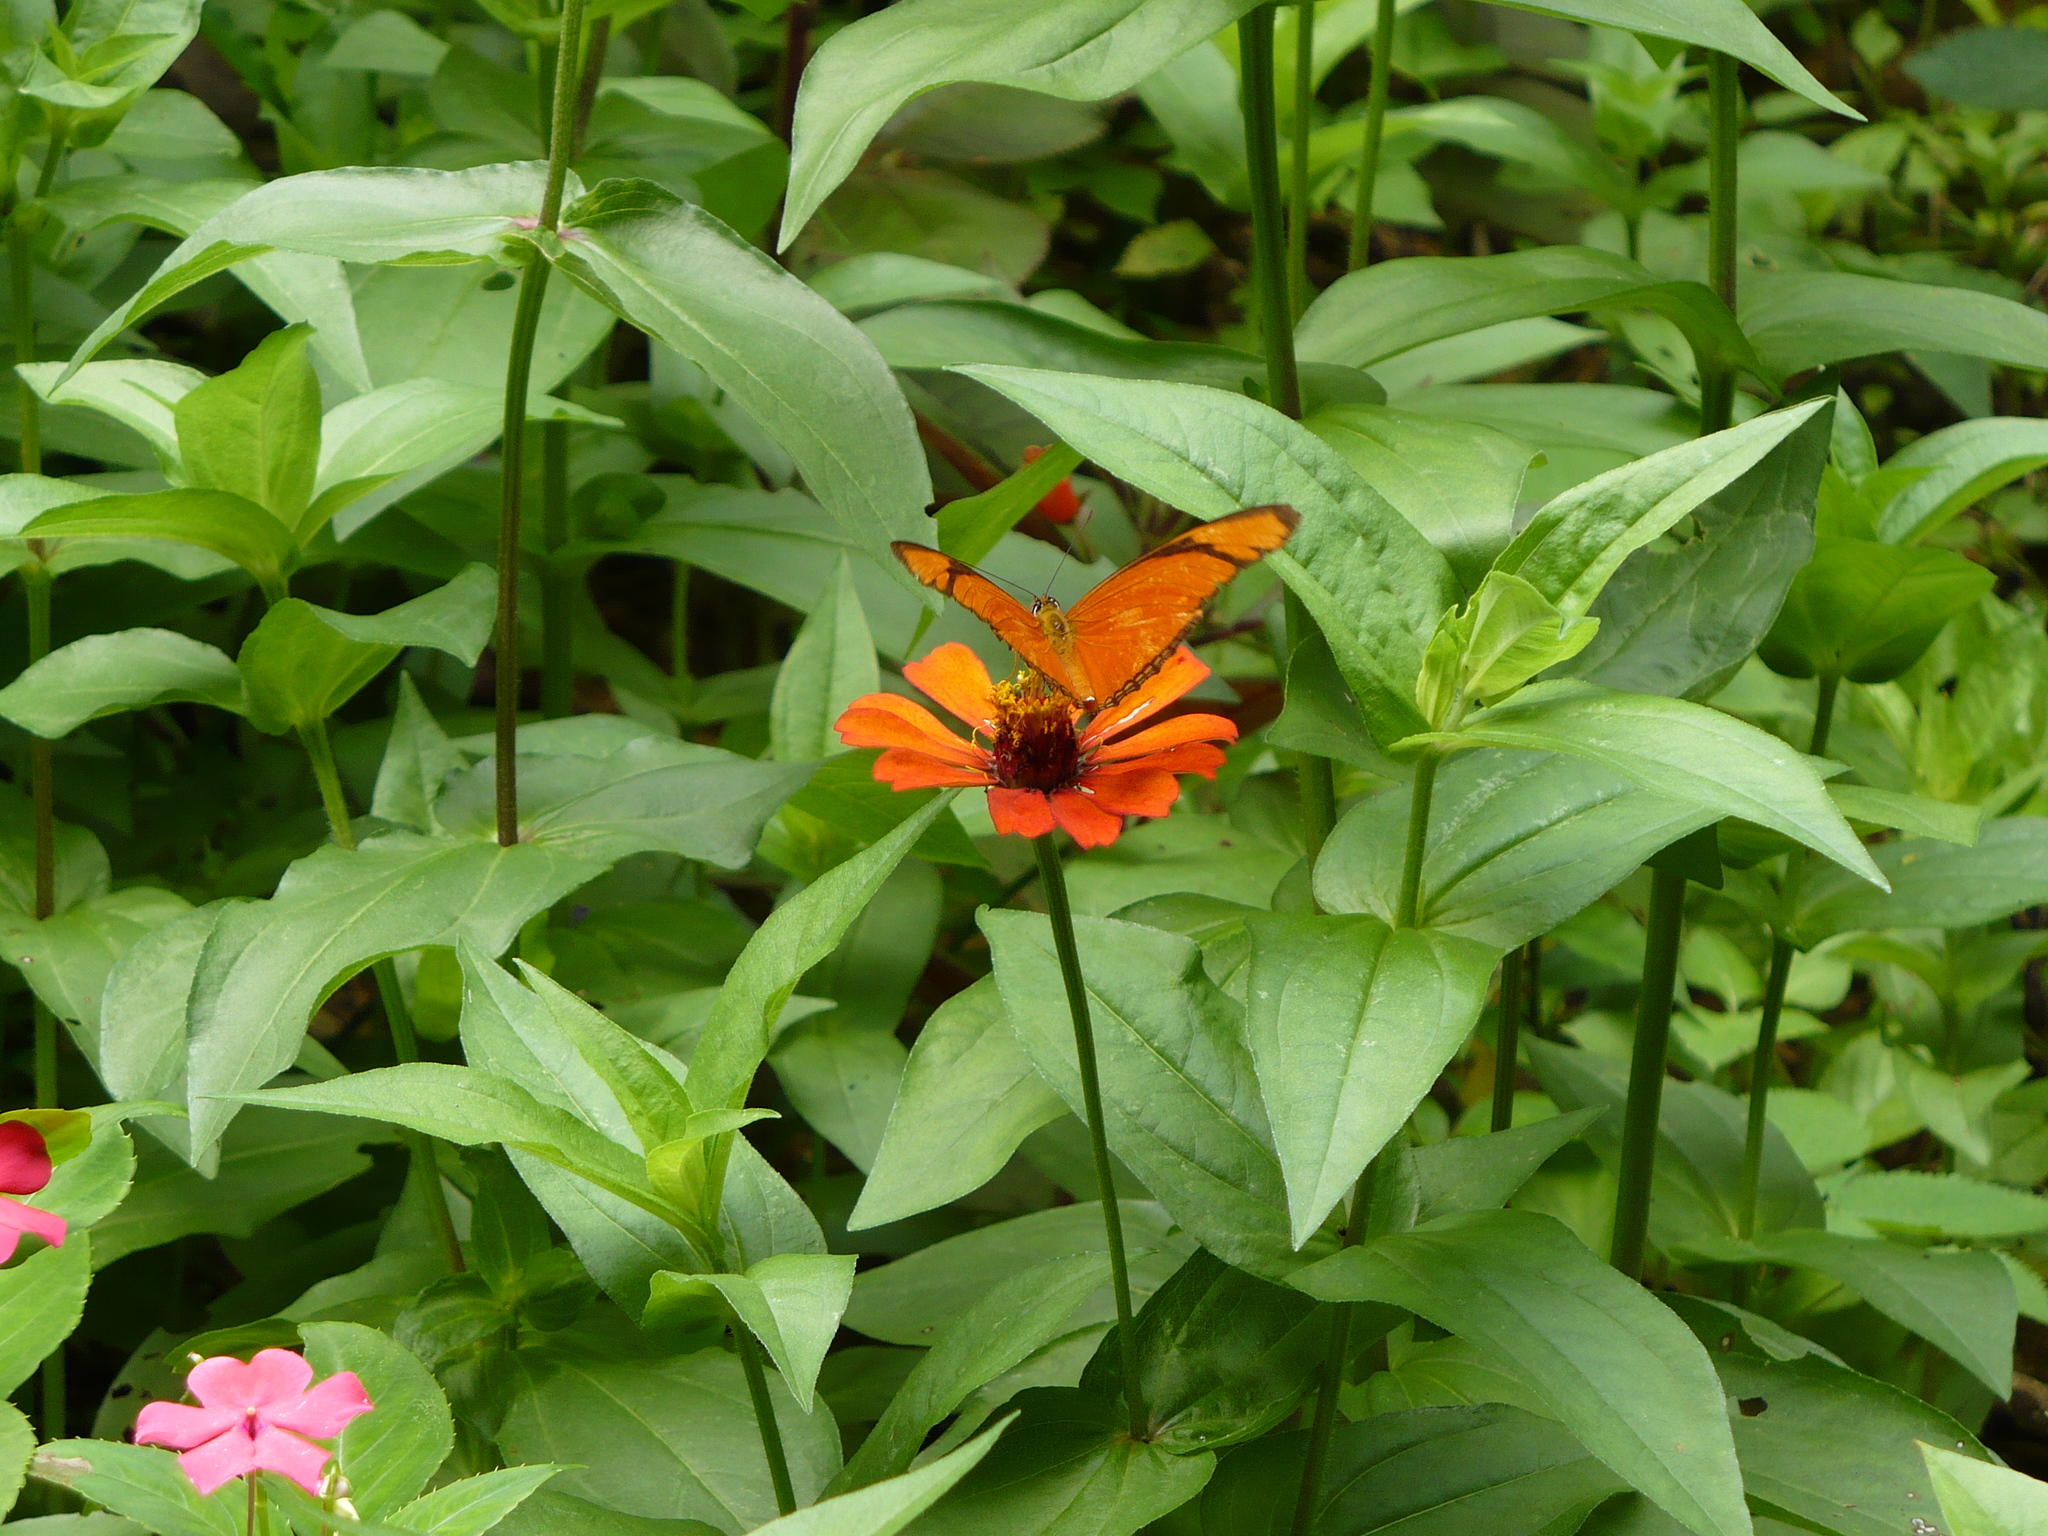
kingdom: Animalia
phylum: Arthropoda
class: Insecta
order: Lepidoptera
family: Nymphalidae
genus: Dryas
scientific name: Dryas iulia
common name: Flambeau
